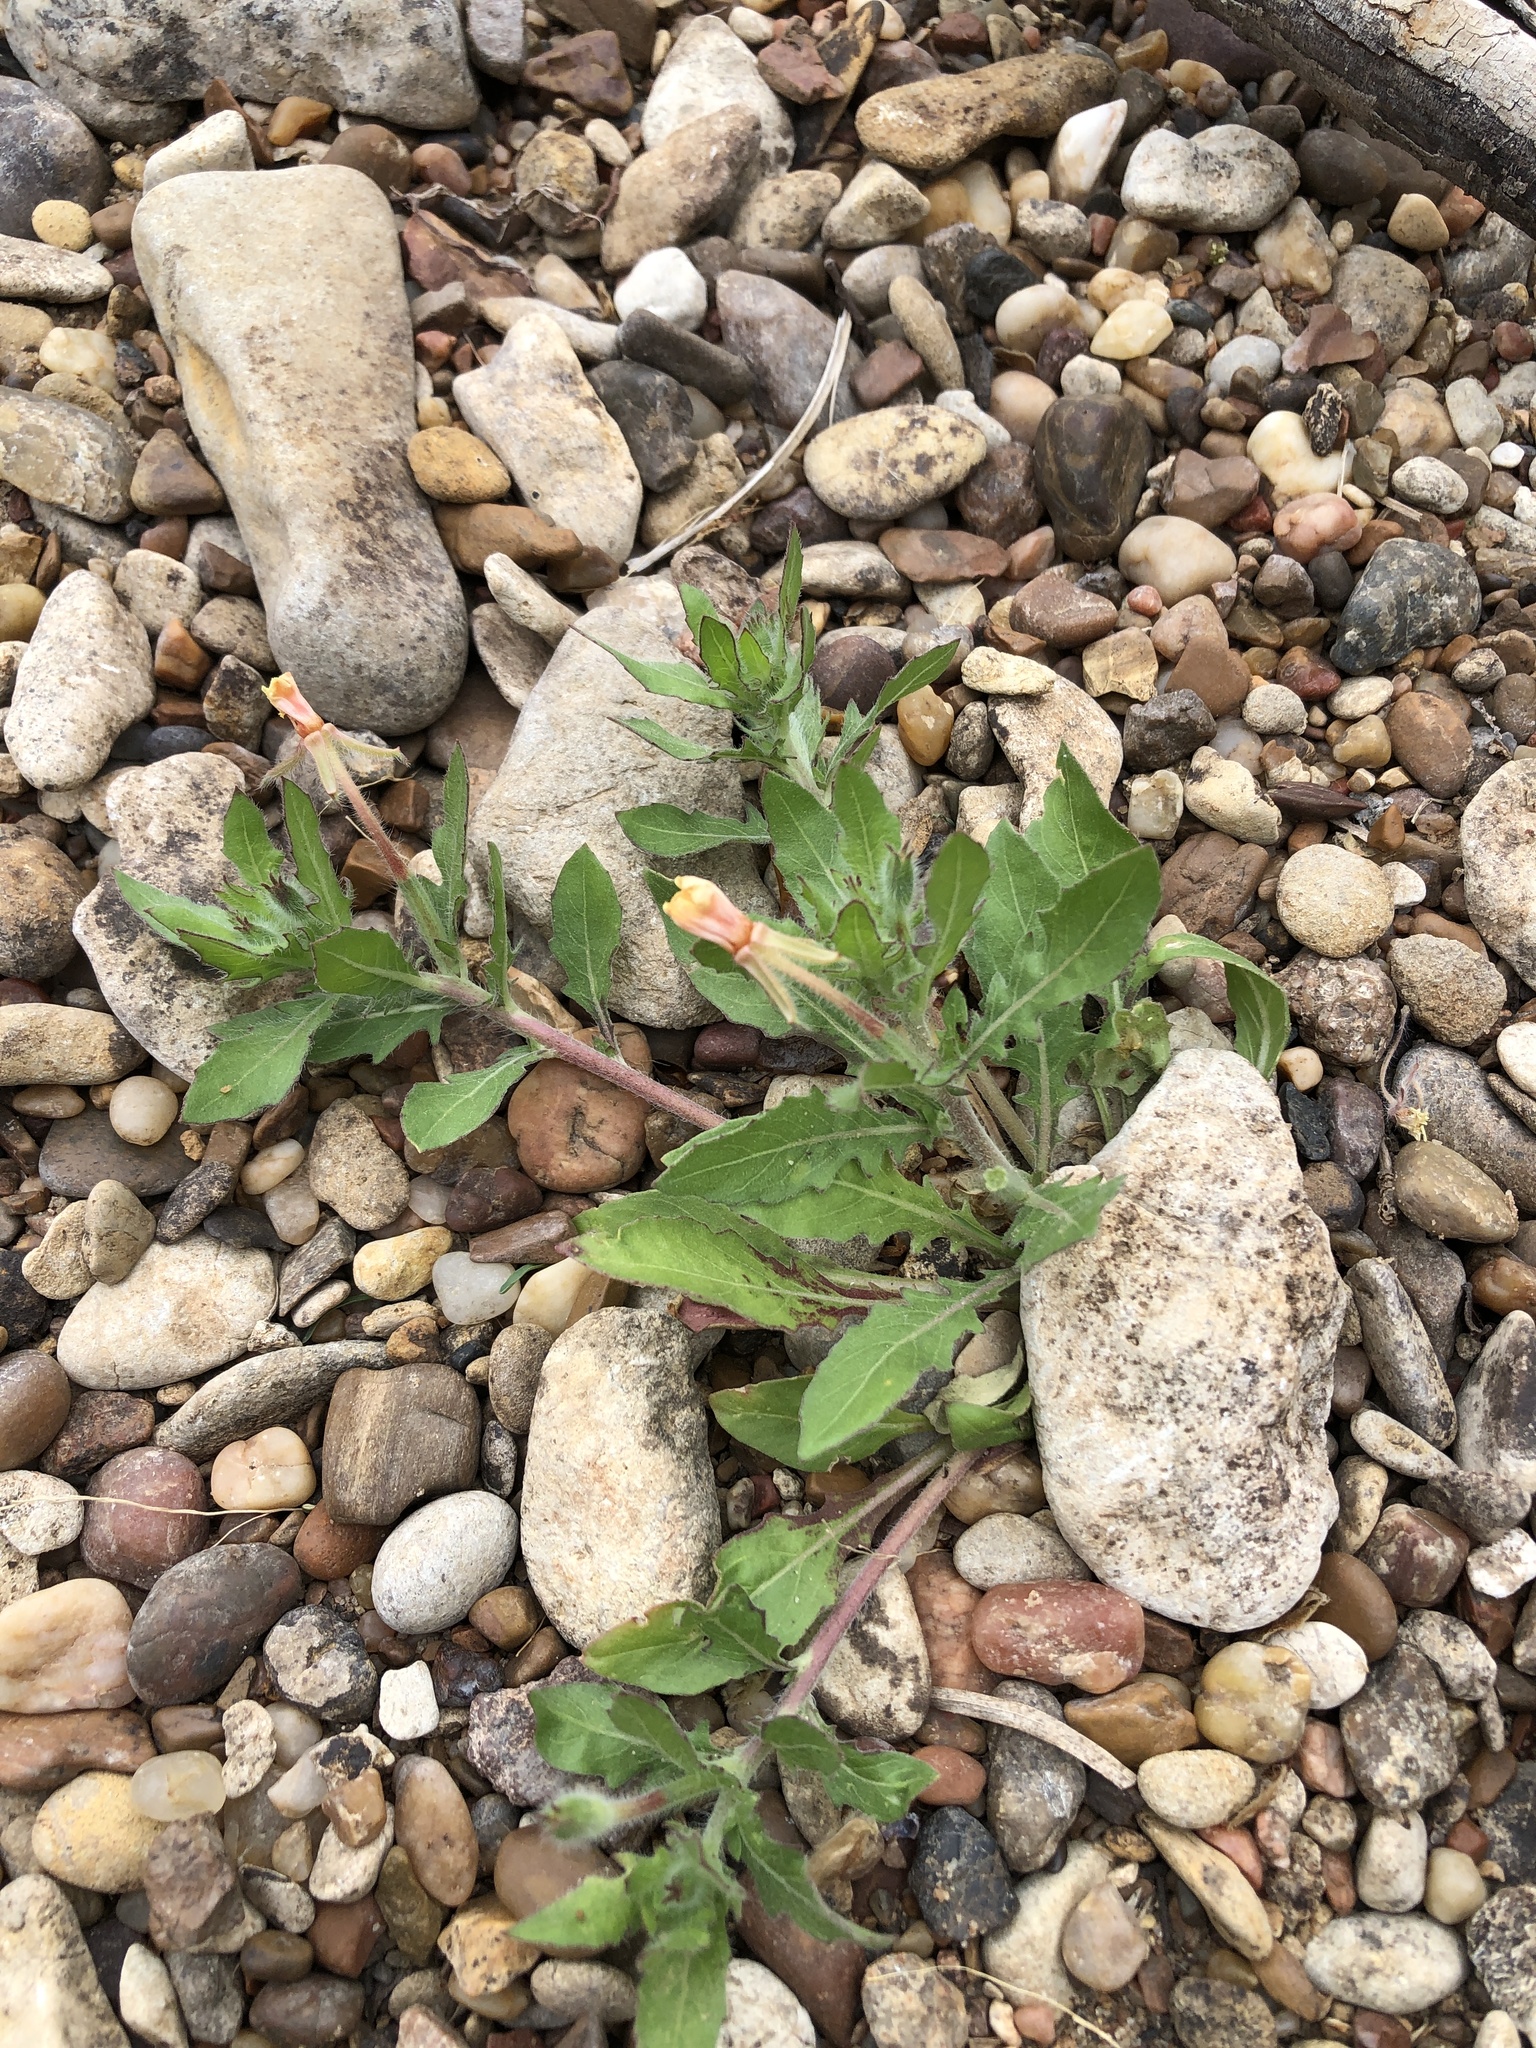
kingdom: Plantae
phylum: Tracheophyta
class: Magnoliopsida
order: Myrtales
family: Onagraceae
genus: Oenothera
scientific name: Oenothera laciniata
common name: Cut-leaved evening-primrose
